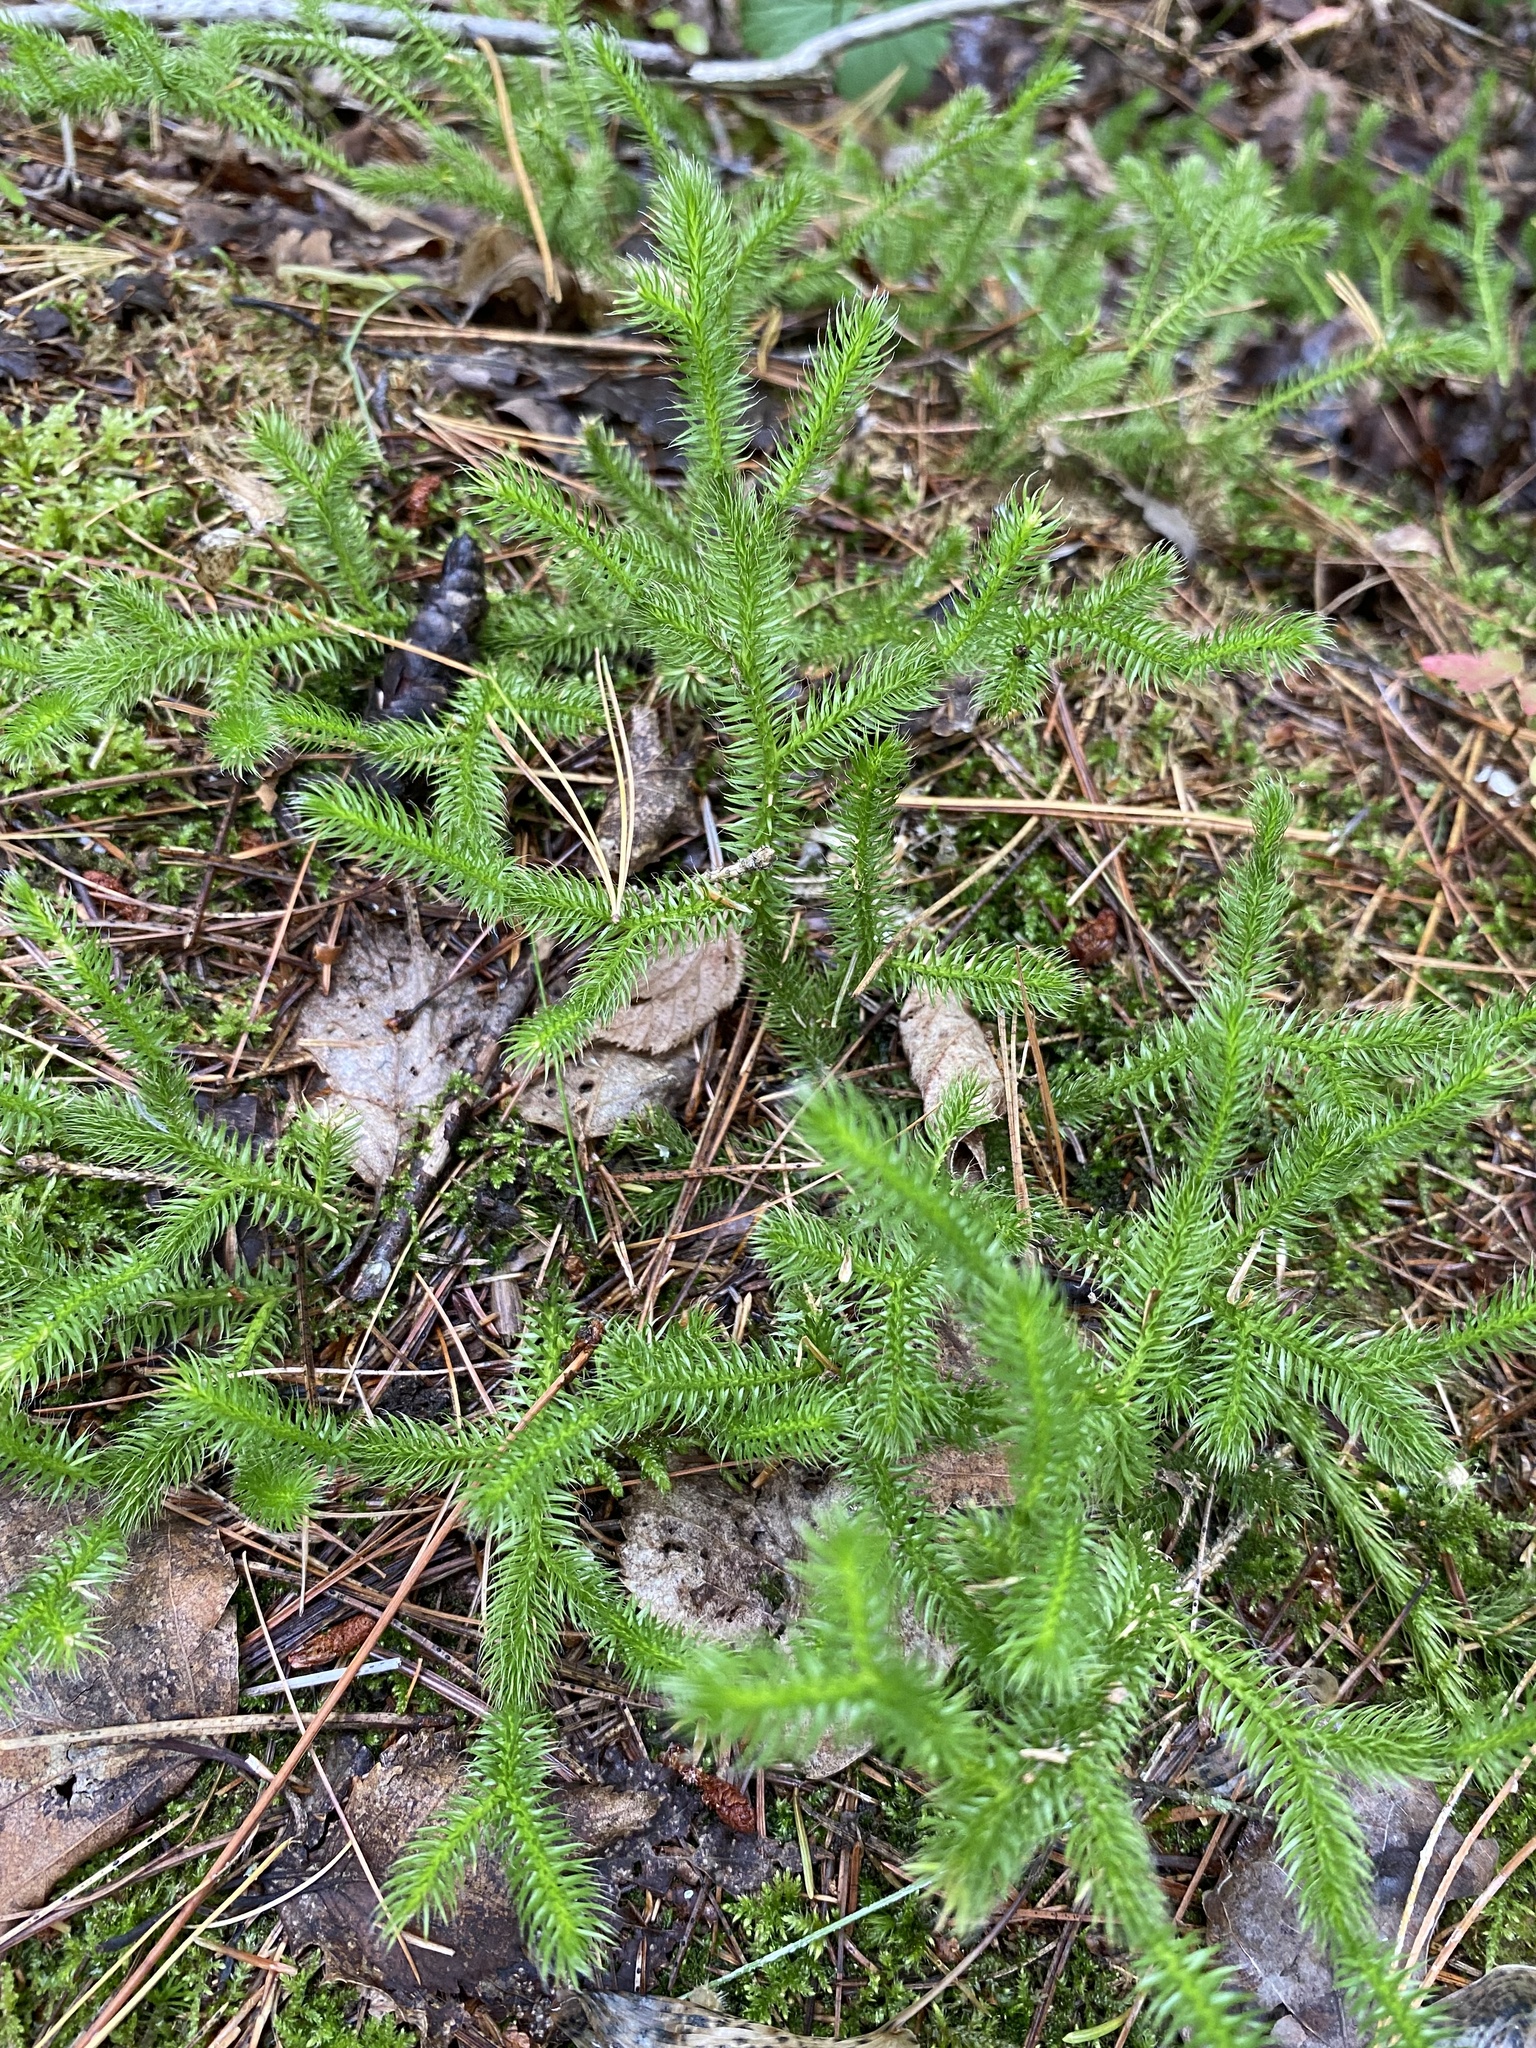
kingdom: Plantae
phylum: Tracheophyta
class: Lycopodiopsida
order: Lycopodiales
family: Lycopodiaceae
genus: Lycopodium
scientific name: Lycopodium clavatum
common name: Stag's-horn clubmoss
